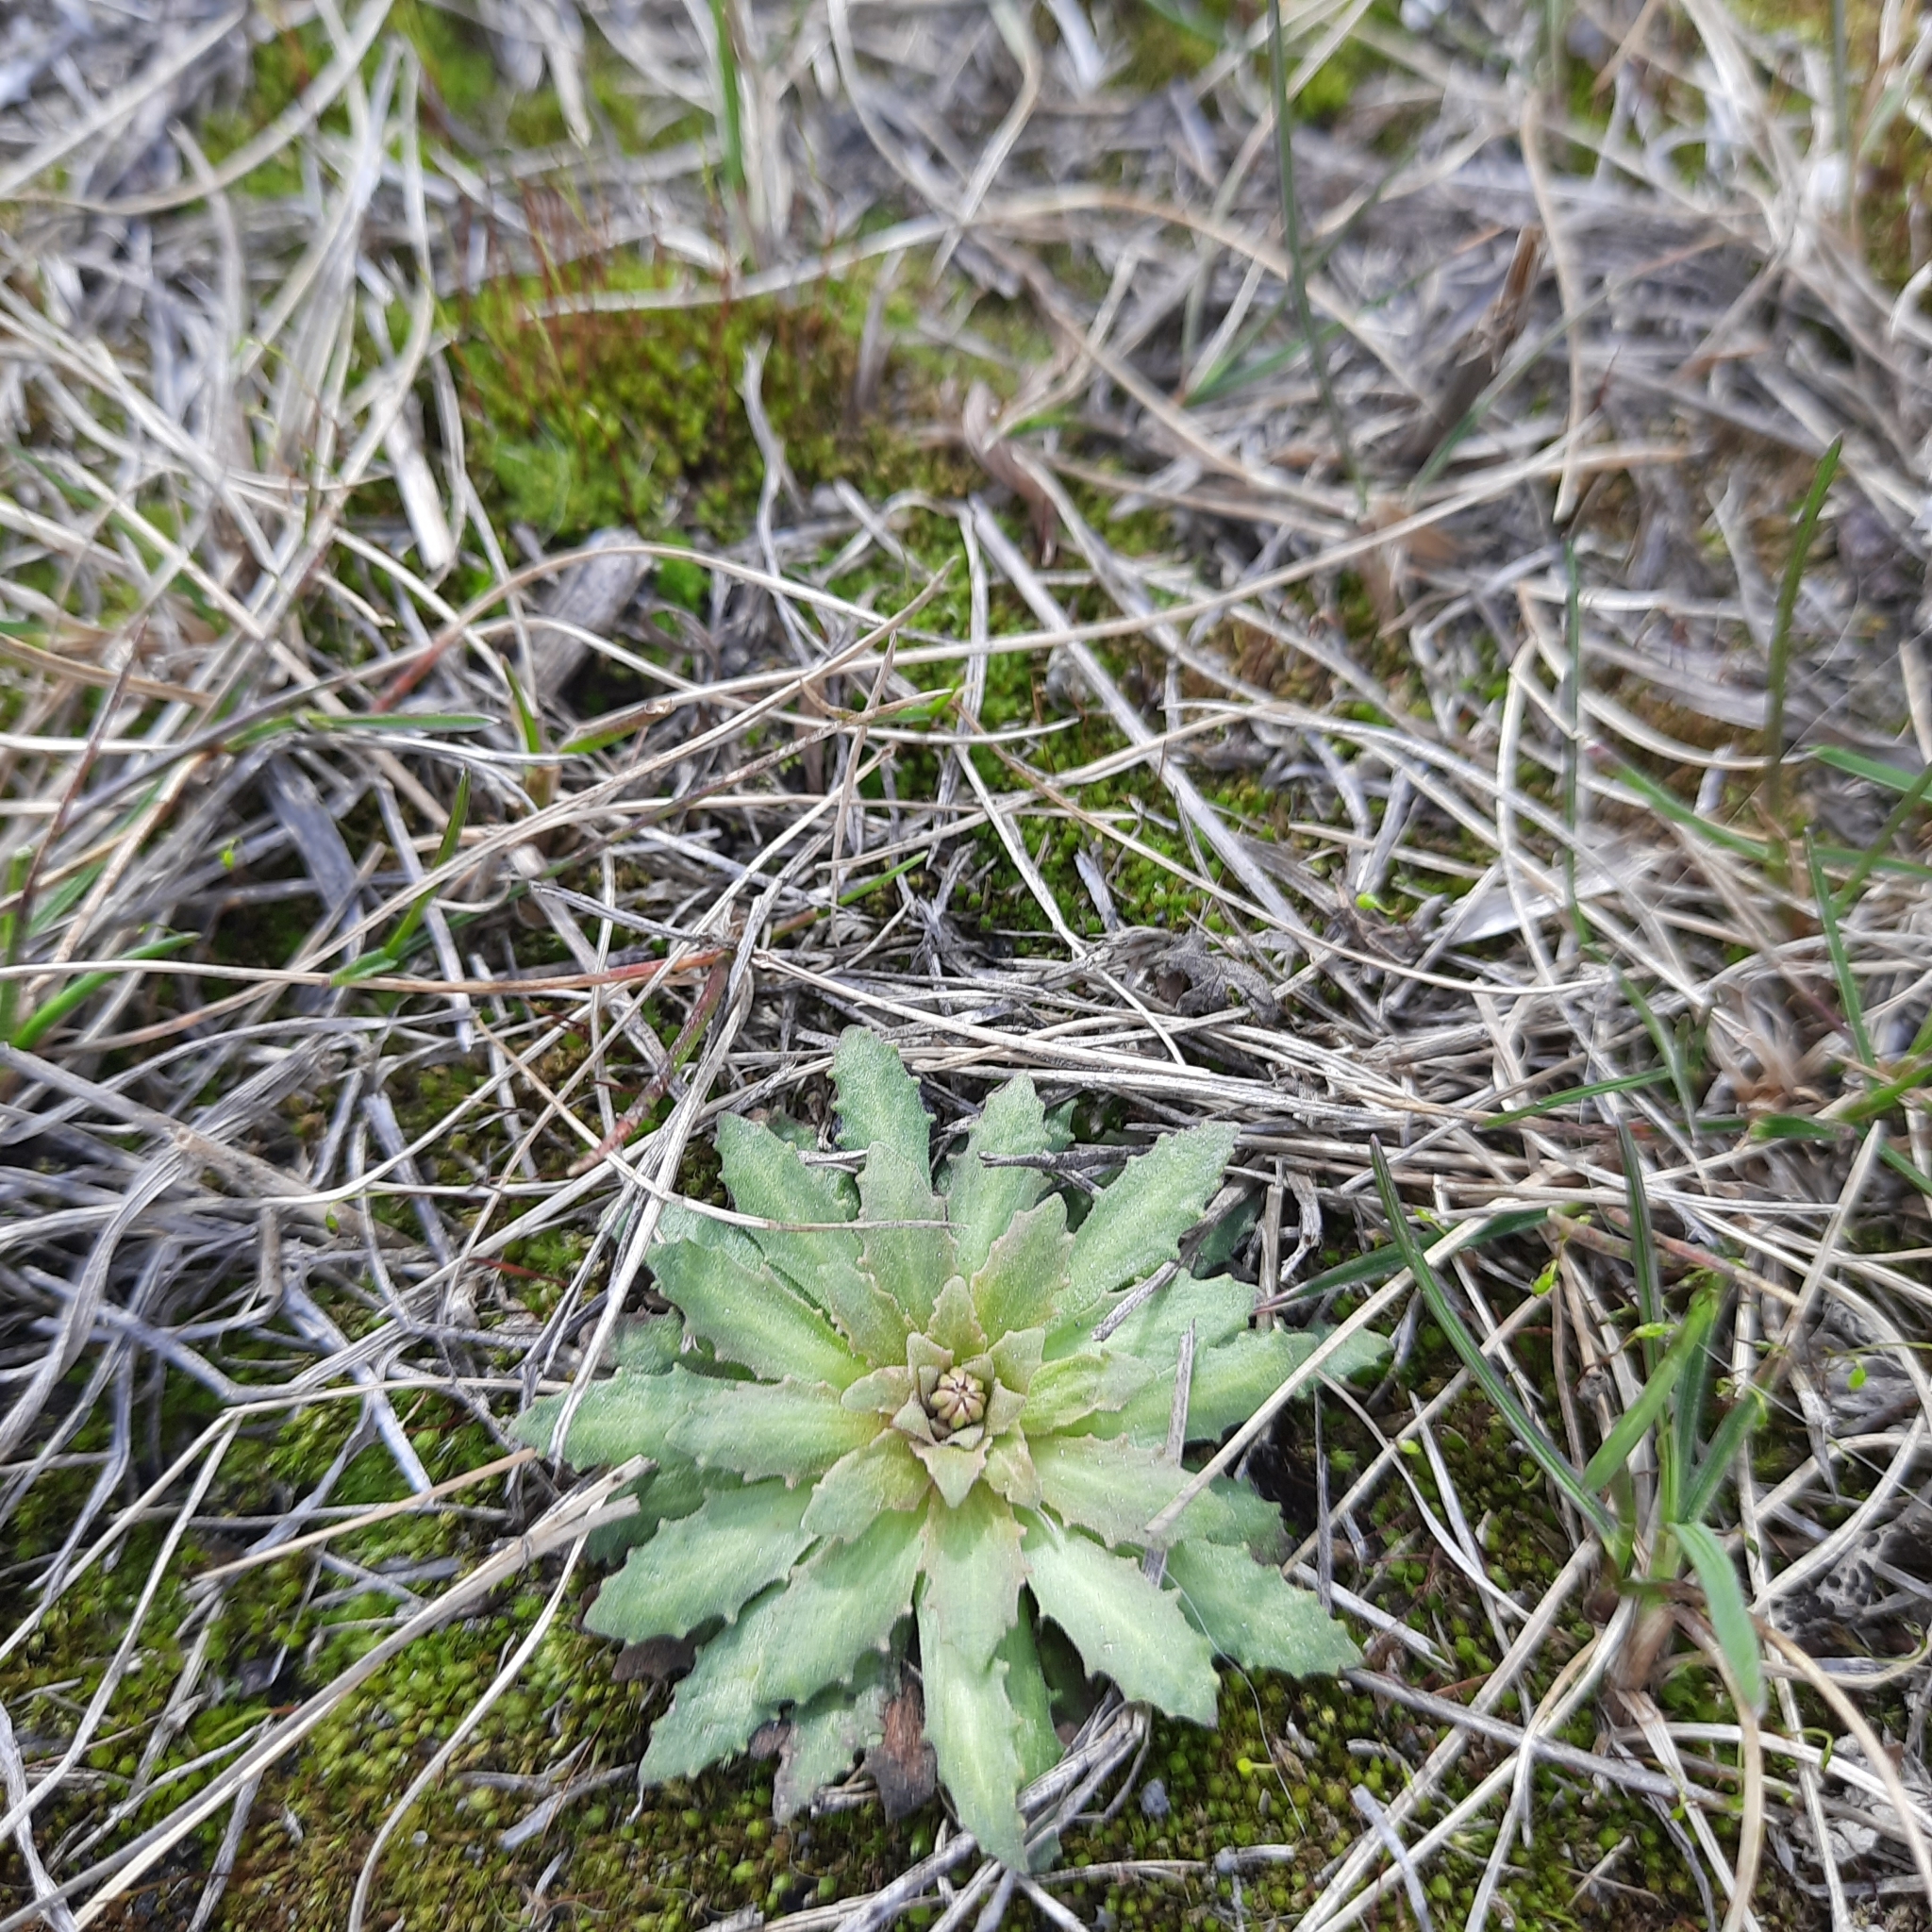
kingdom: Plantae
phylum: Tracheophyta
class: Magnoliopsida
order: Ericales
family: Primulaceae
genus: Androsace
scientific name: Androsace septentrionalis
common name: Hairy northern fairy-candelabra
